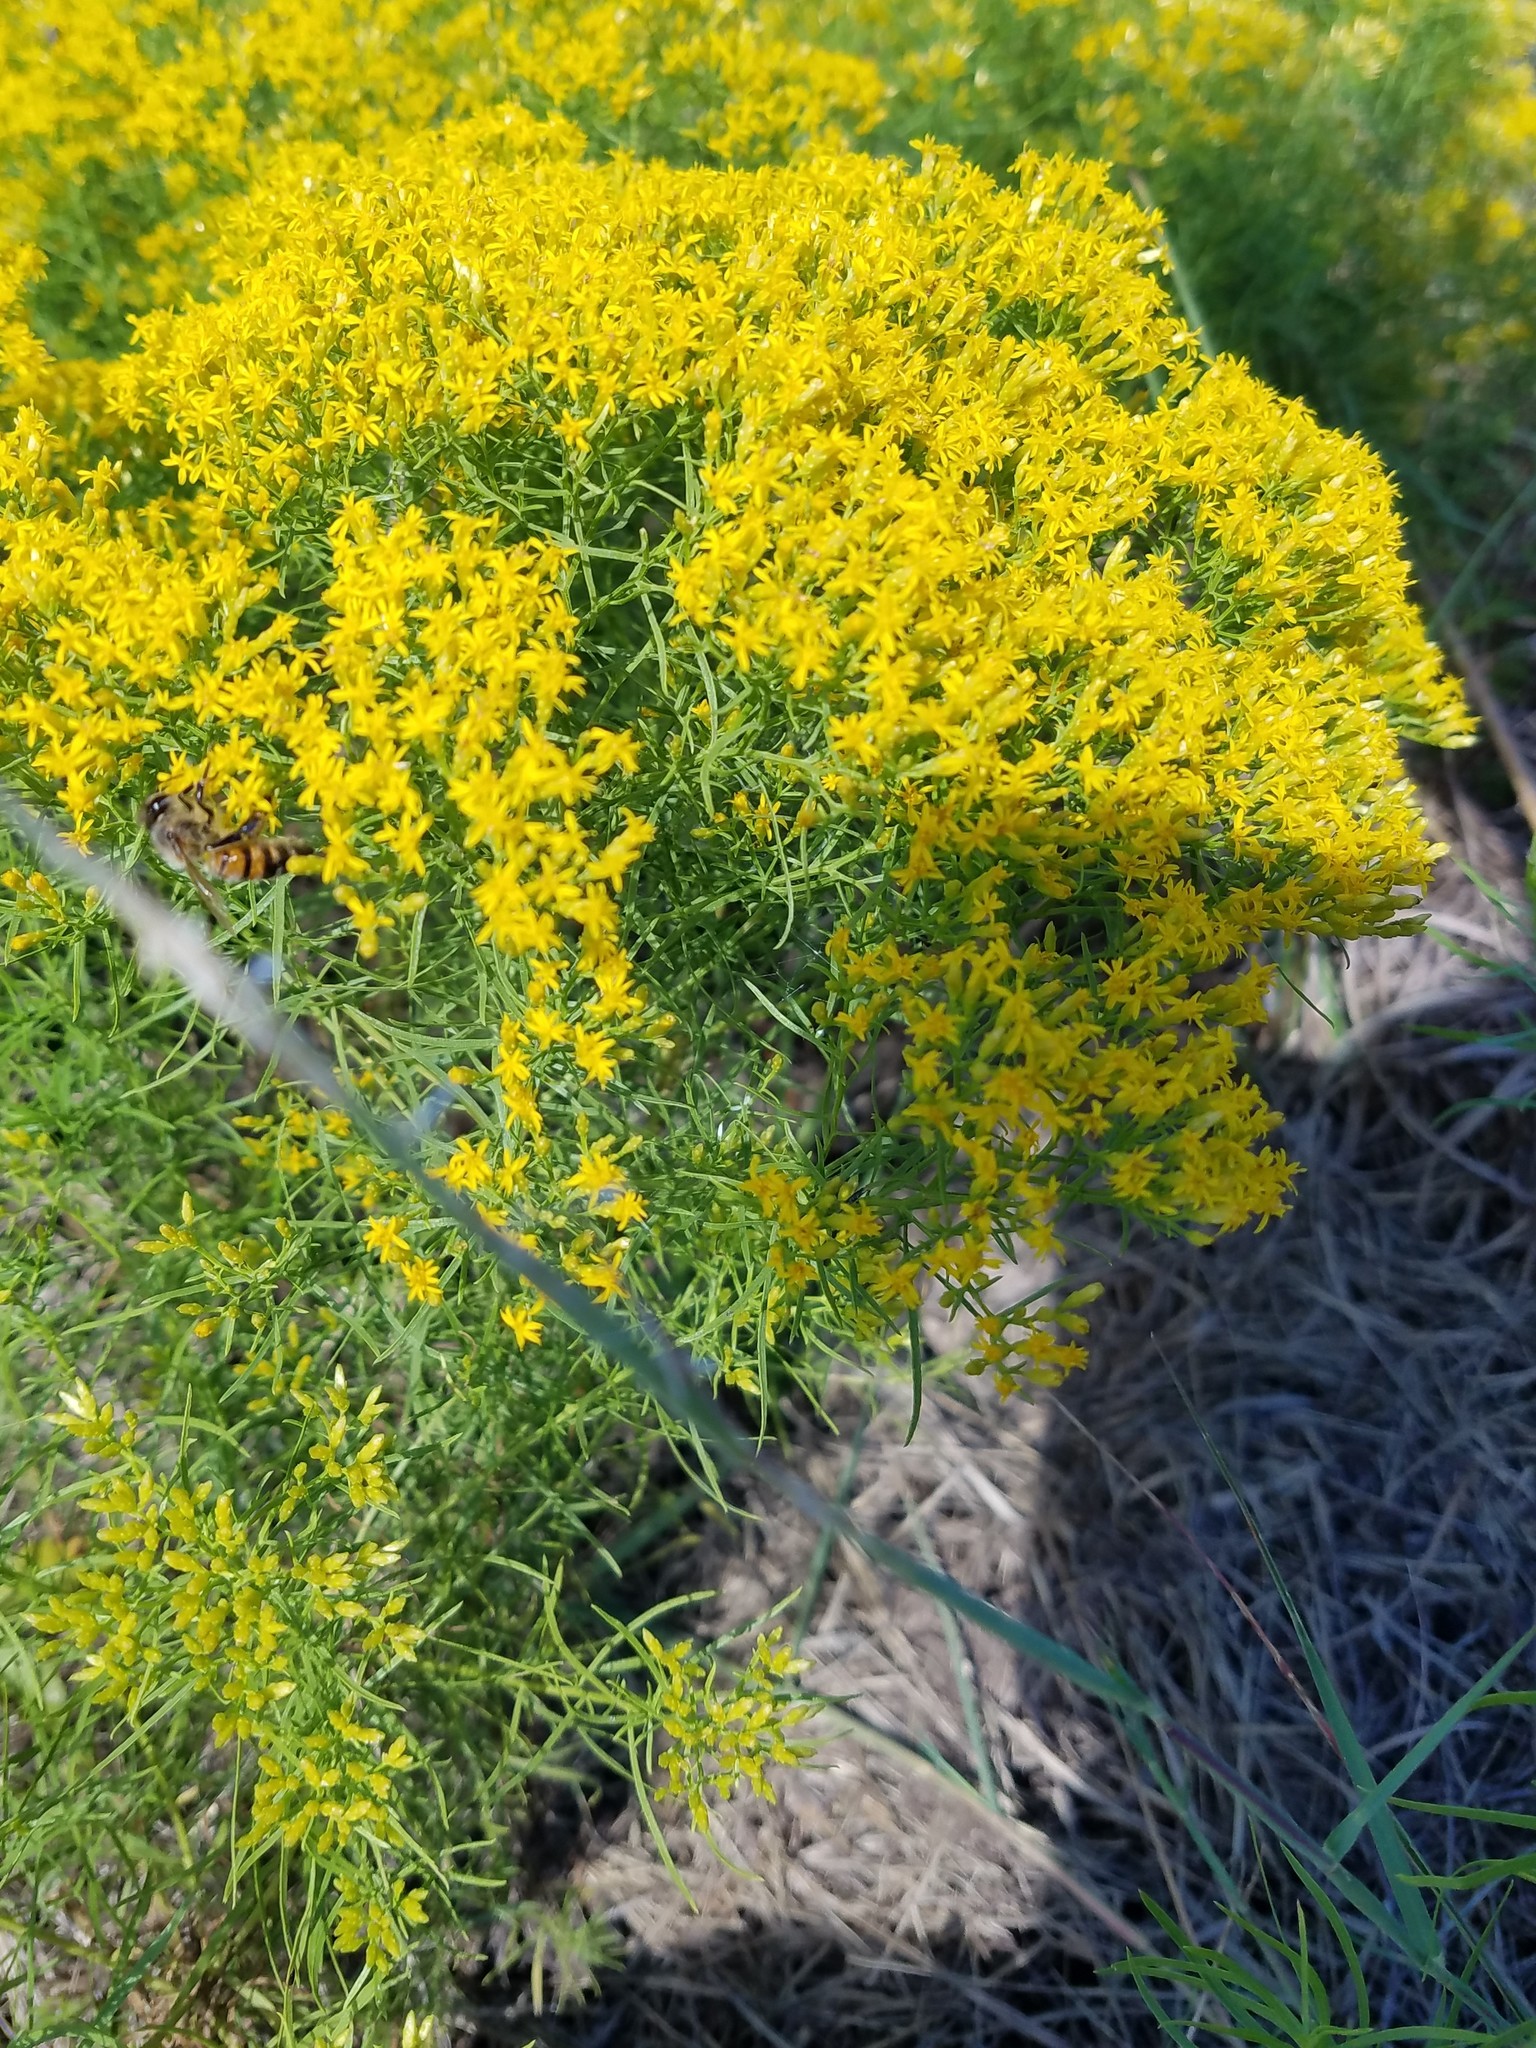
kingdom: Plantae
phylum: Tracheophyta
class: Magnoliopsida
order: Asterales
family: Asteraceae
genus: Euthamia
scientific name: Euthamia caroliniana
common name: Coastal plain goldentop
